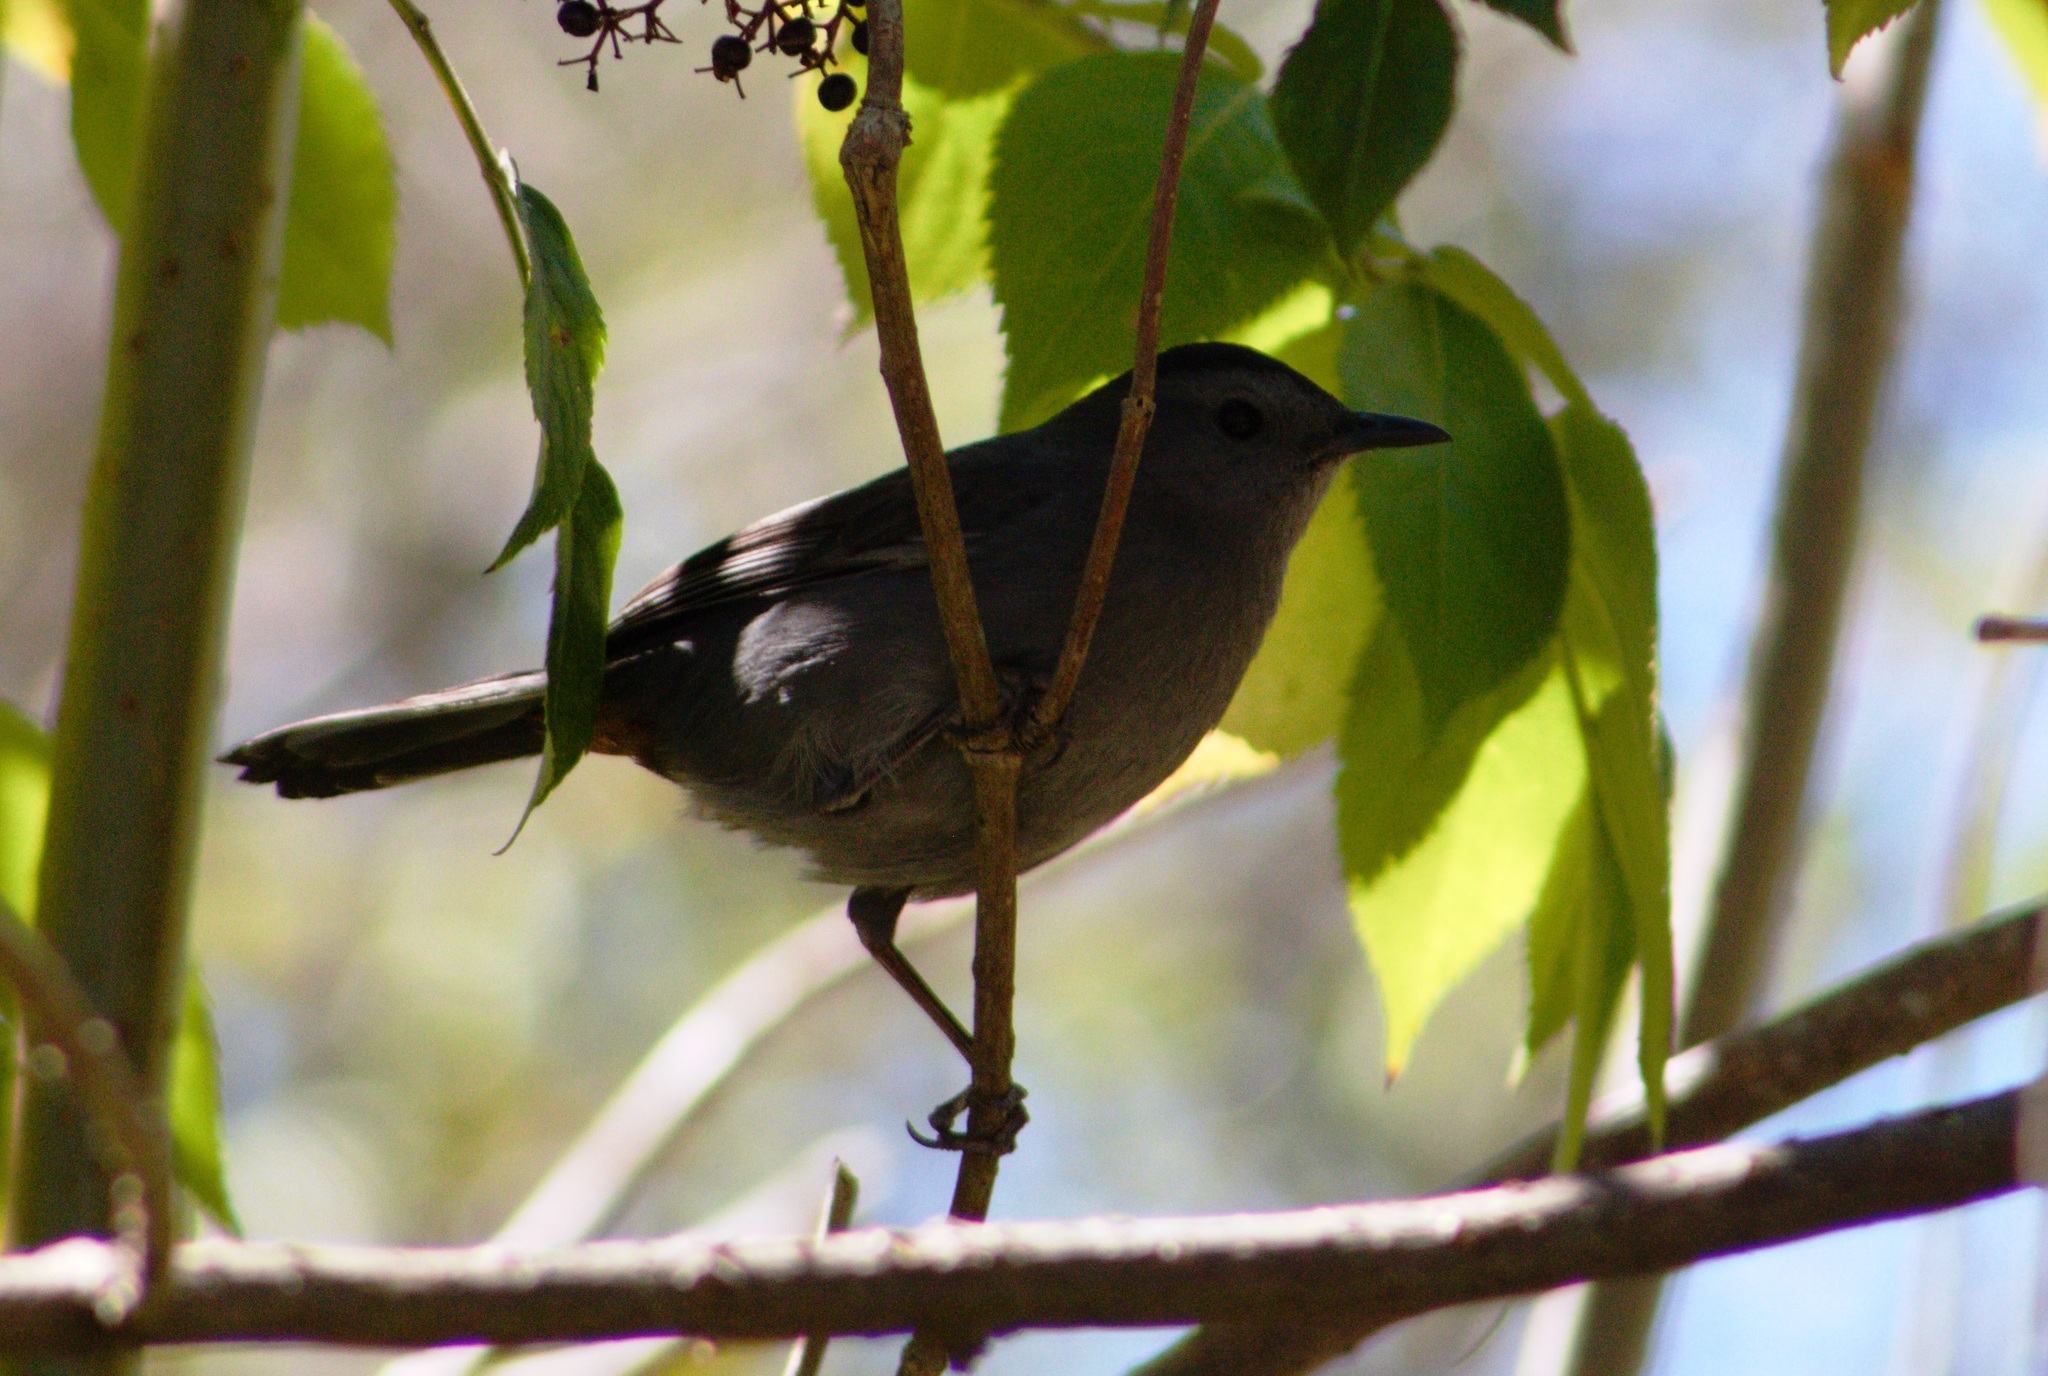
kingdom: Animalia
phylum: Chordata
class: Aves
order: Passeriformes
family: Mimidae
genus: Dumetella
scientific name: Dumetella carolinensis
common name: Gray catbird
